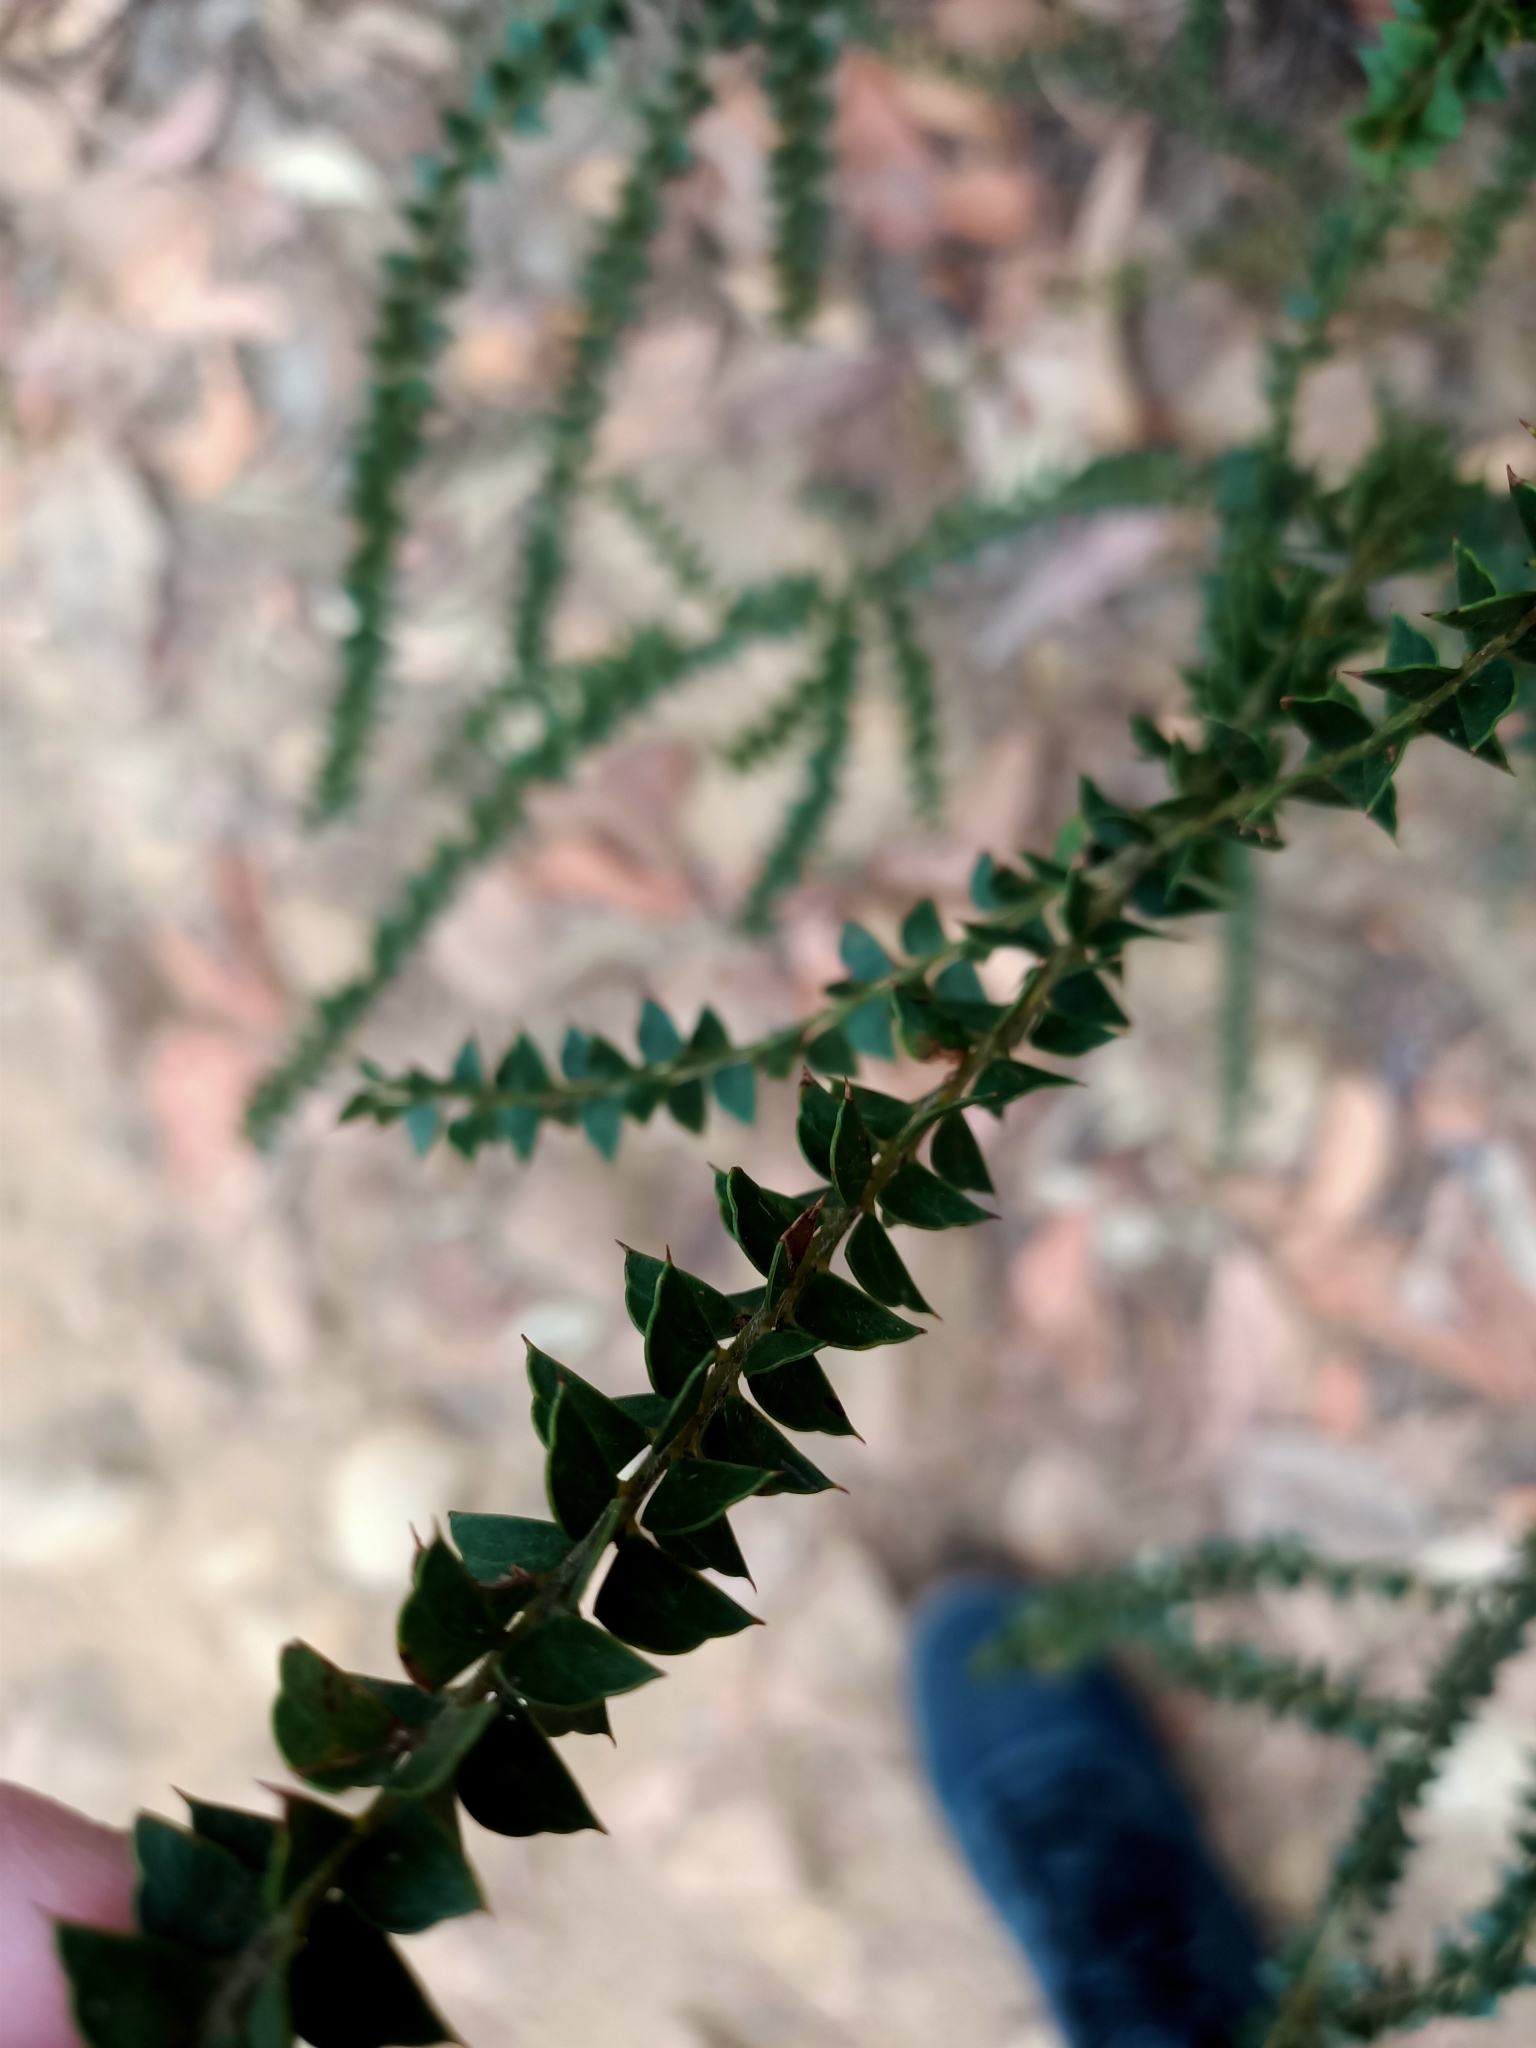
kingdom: Plantae
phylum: Tracheophyta
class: Magnoliopsida
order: Fabales
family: Fabaceae
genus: Acacia
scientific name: Acacia hubbardiana
